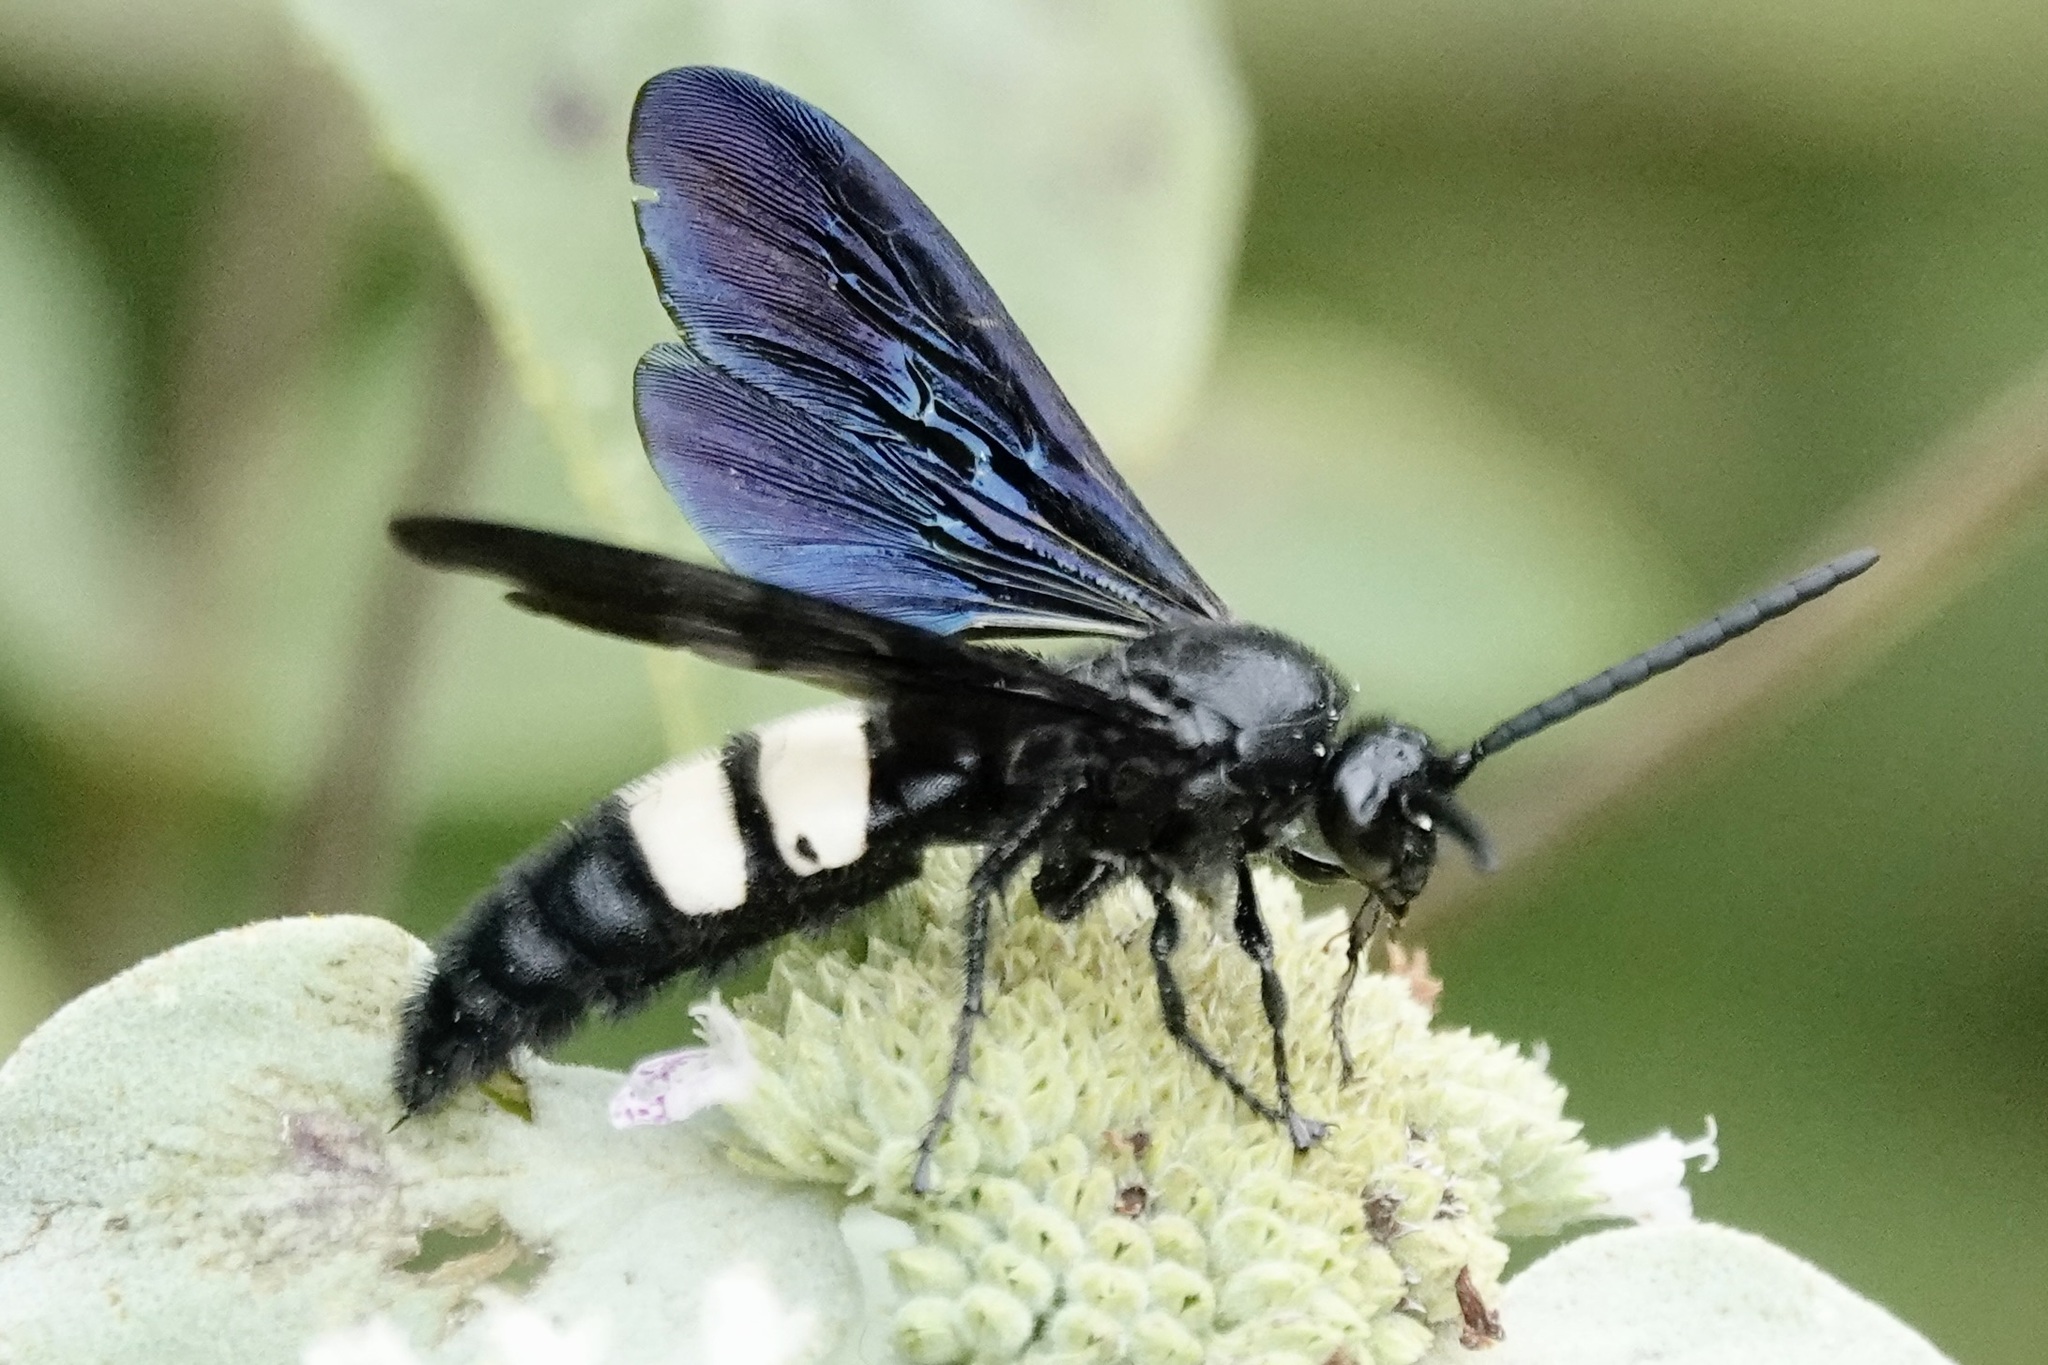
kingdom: Animalia
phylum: Arthropoda
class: Insecta
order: Hymenoptera
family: Scoliidae
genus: Scolia
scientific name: Scolia bicincta
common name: Double-banded scoliid wasp
